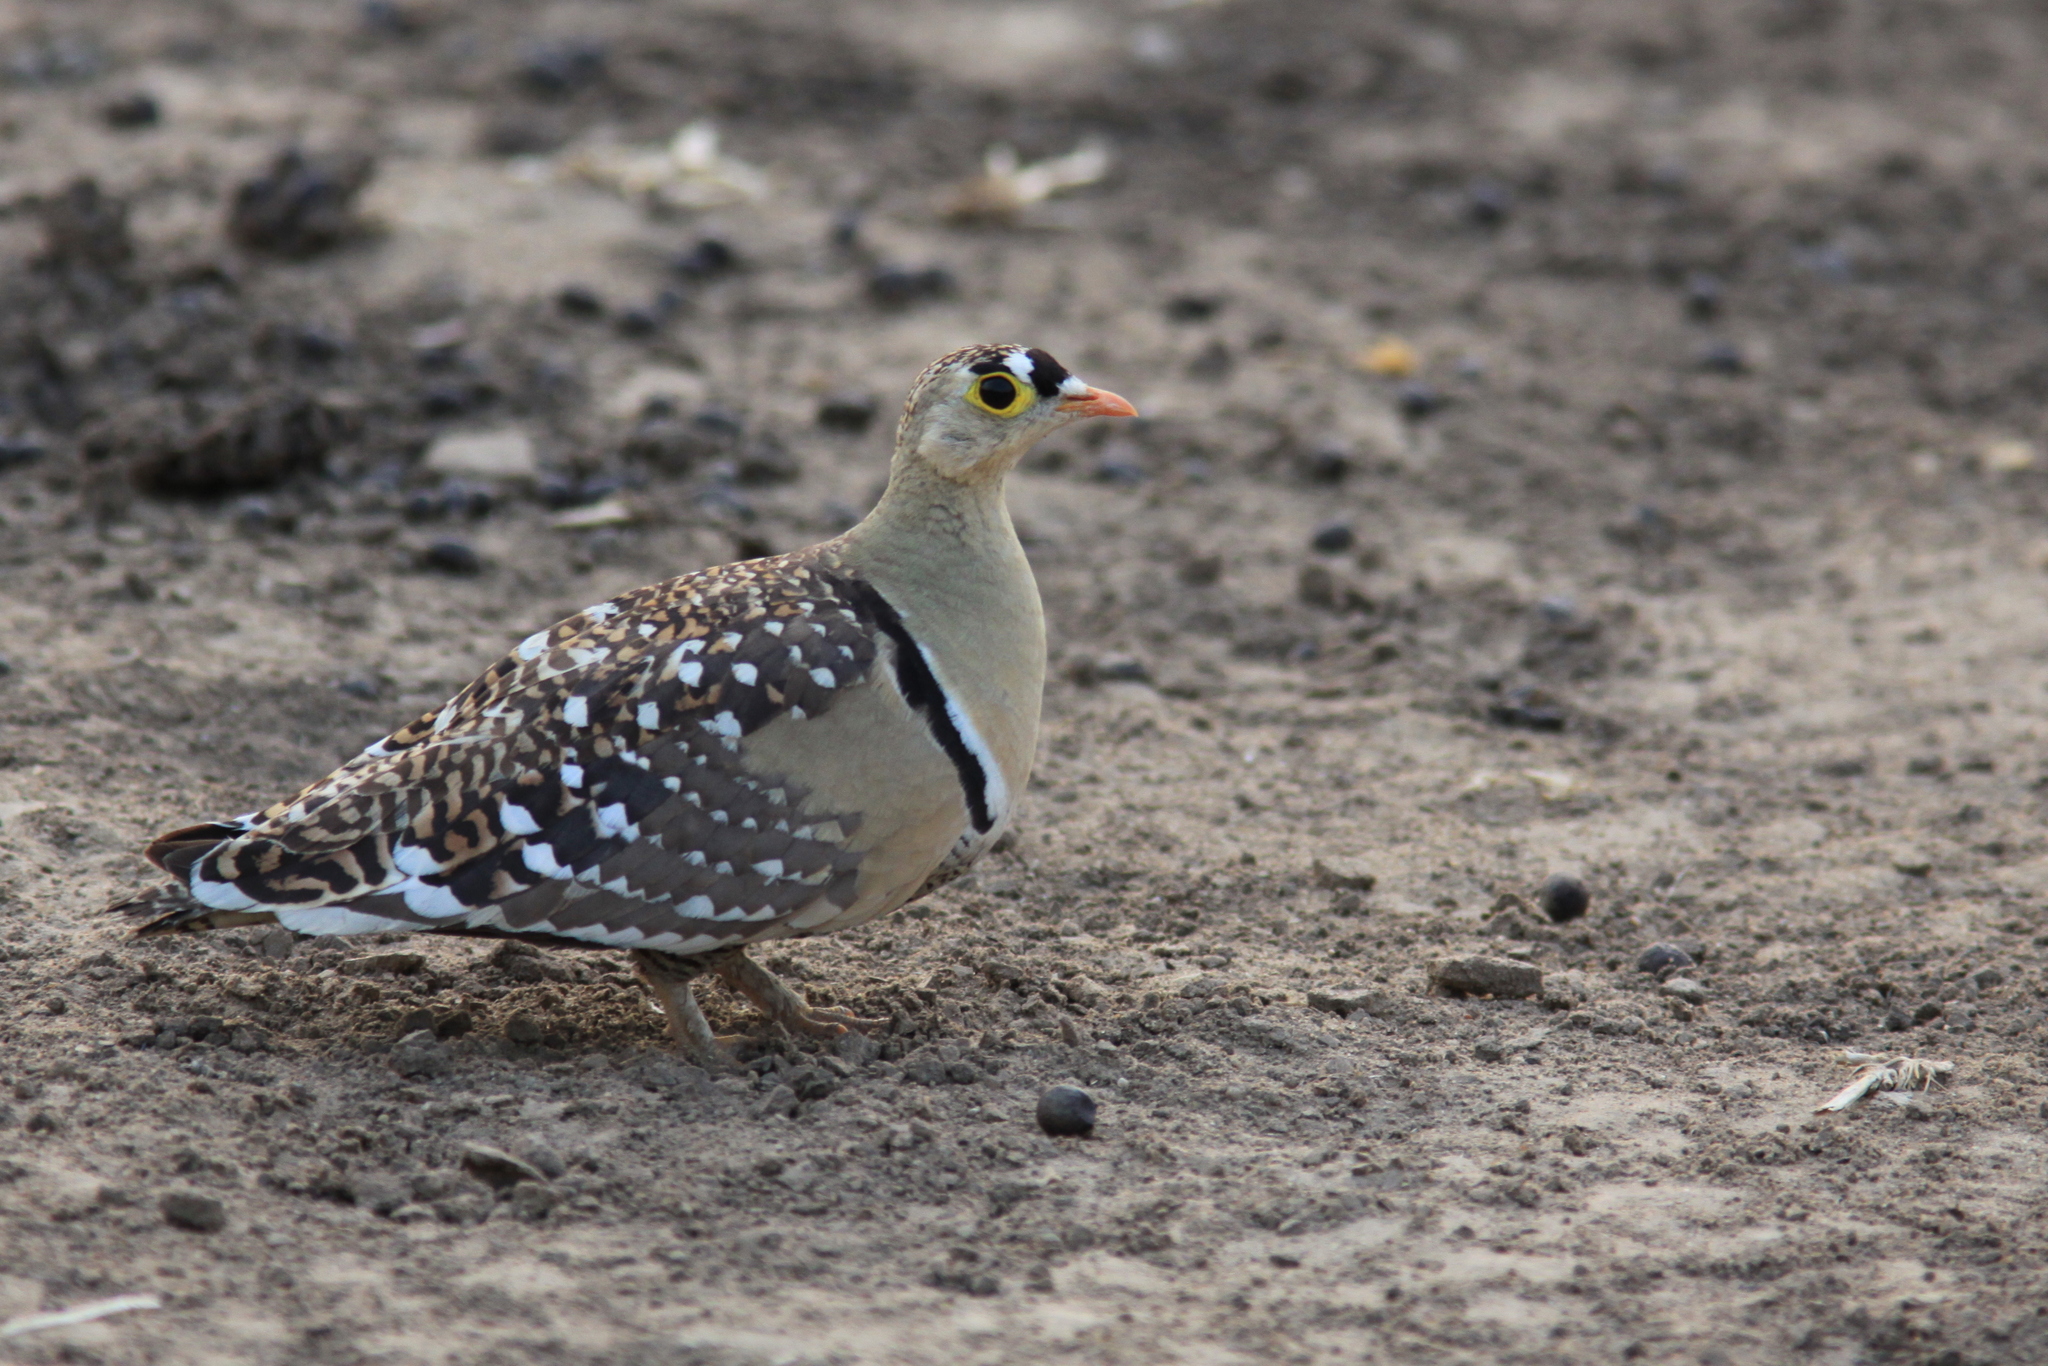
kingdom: Animalia
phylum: Chordata
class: Aves
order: Pteroclidiformes
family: Pteroclididae
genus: Pterocles
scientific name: Pterocles bicinctus
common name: Double-banded sandgrouse
